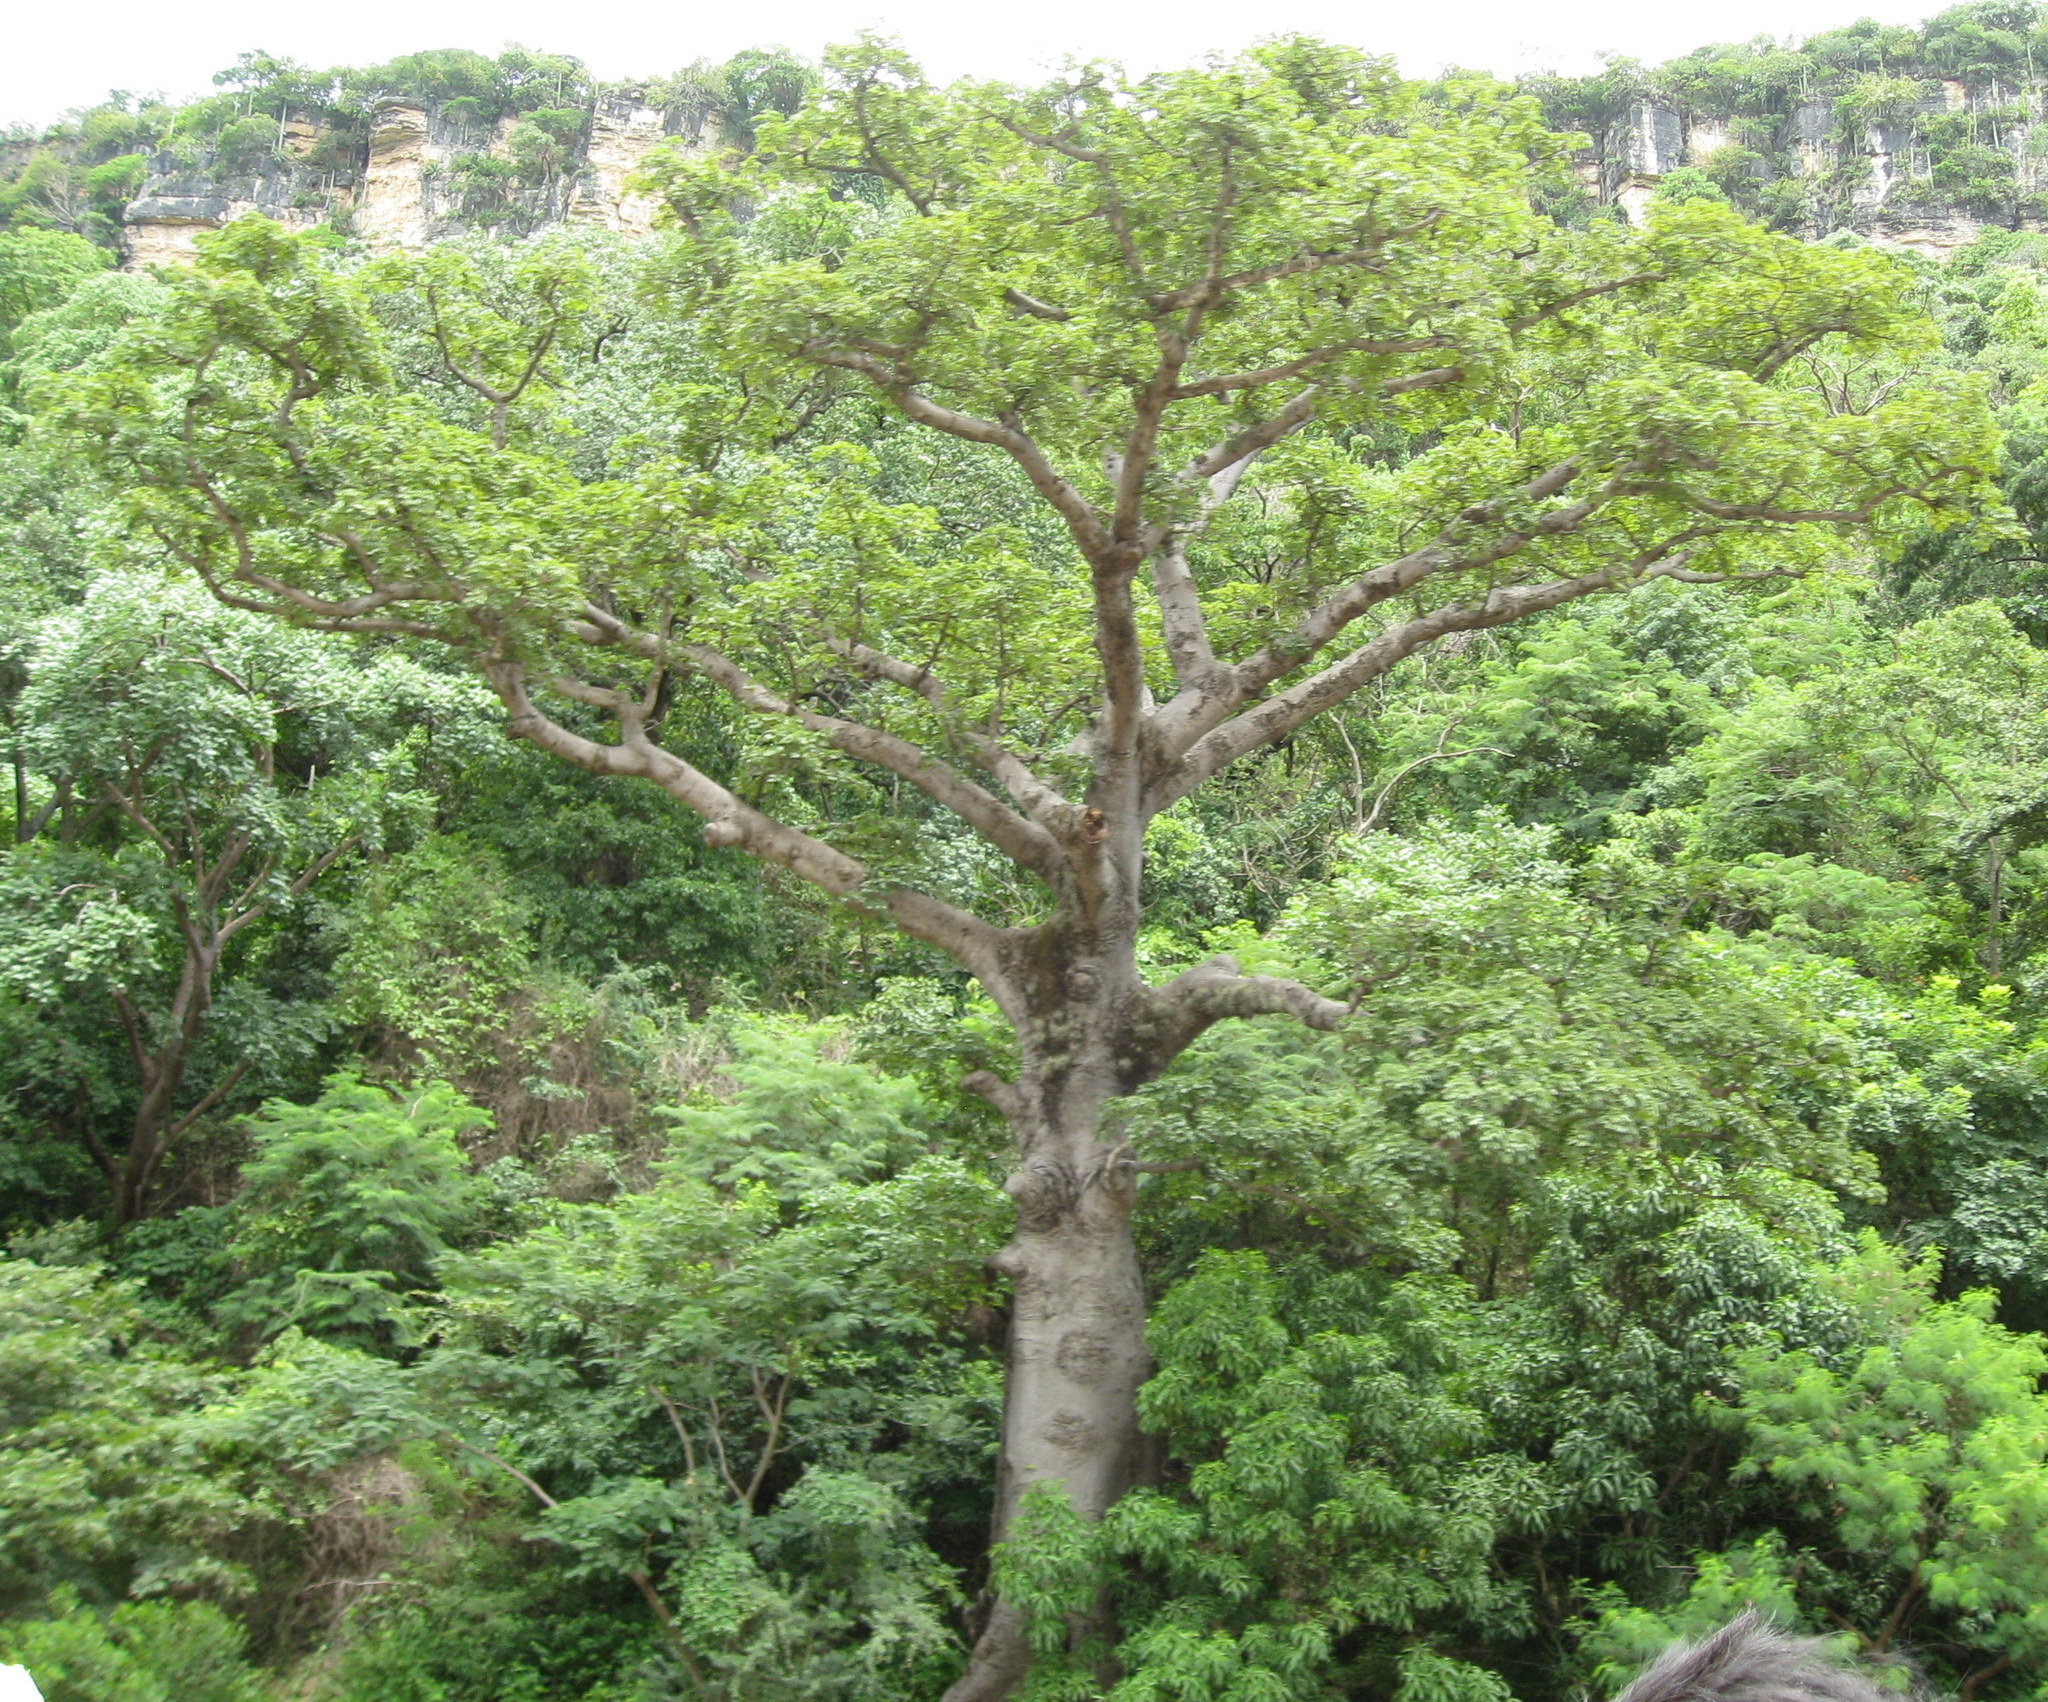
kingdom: Plantae
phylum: Tracheophyta
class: Magnoliopsida
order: Malvales
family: Malvaceae
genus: Ceiba
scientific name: Ceiba pentandra
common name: Kapok
